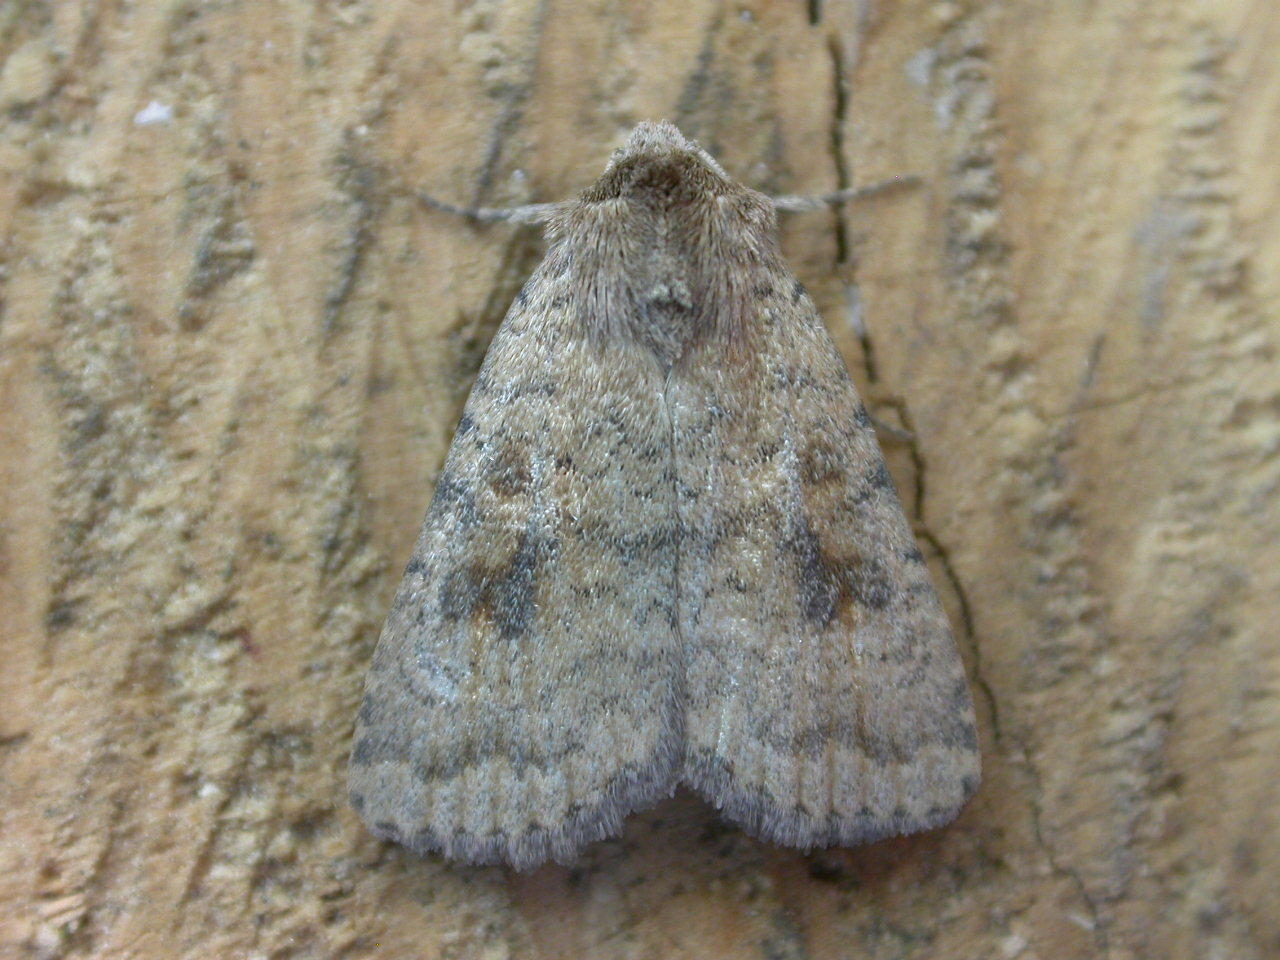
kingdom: Animalia
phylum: Arthropoda
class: Insecta
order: Lepidoptera
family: Noctuidae
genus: Caradrina
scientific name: Caradrina morpheus
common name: Mottled rustic
